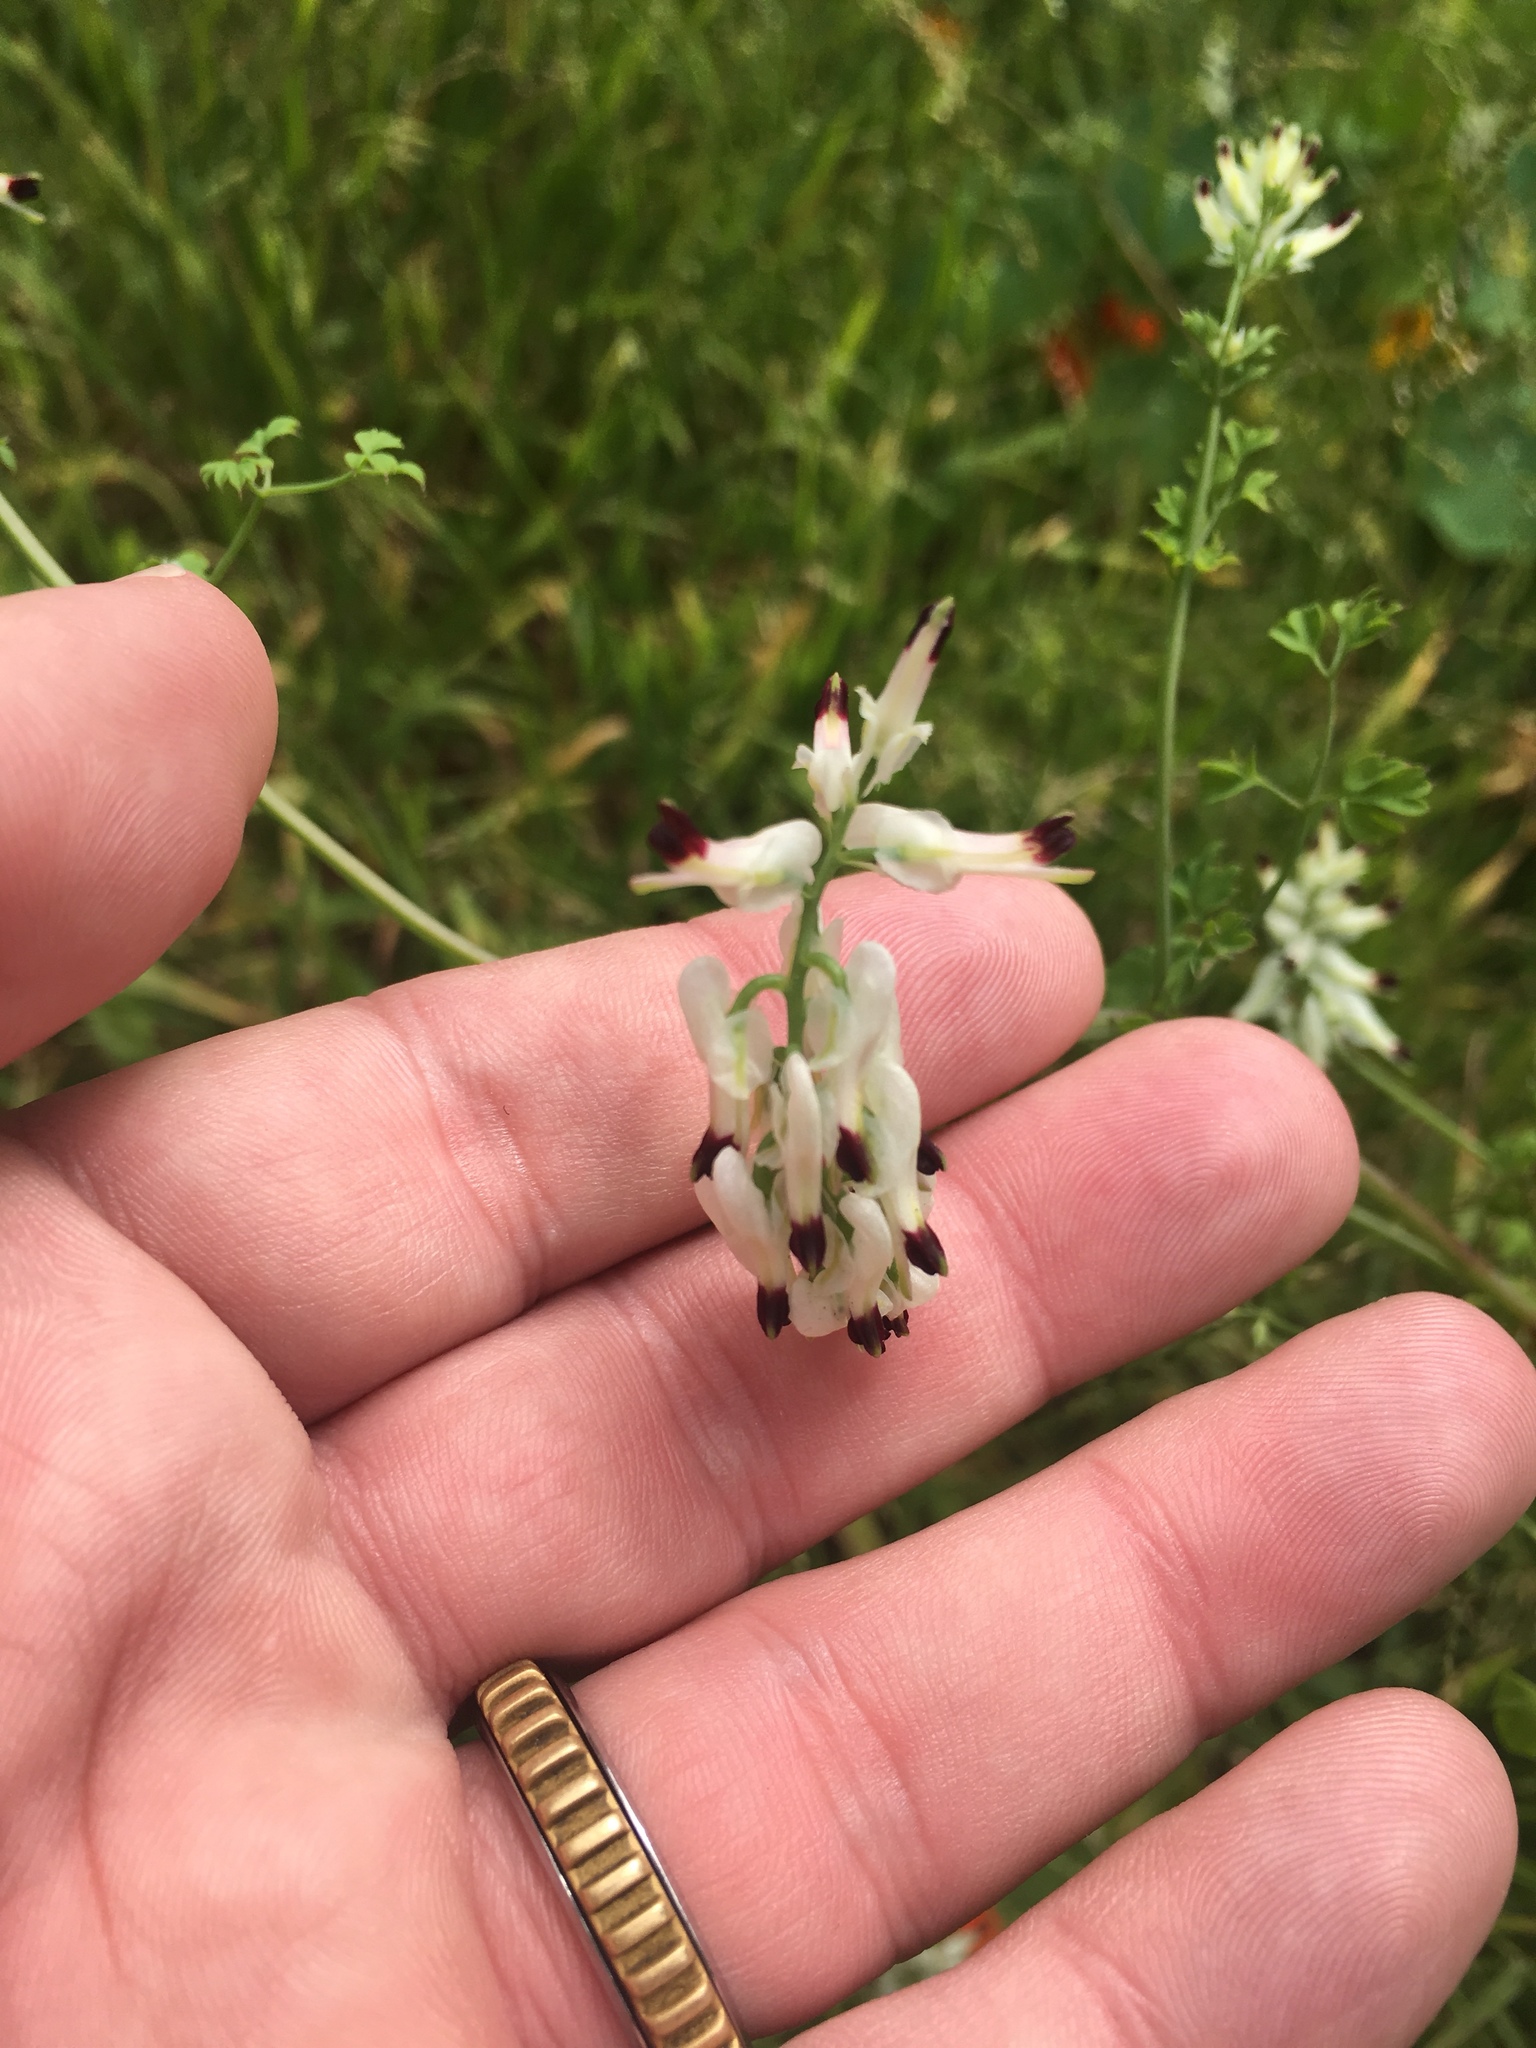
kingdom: Plantae
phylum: Tracheophyta
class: Magnoliopsida
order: Ranunculales
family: Papaveraceae
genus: Fumaria
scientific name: Fumaria capreolata
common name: White ramping-fumitory
